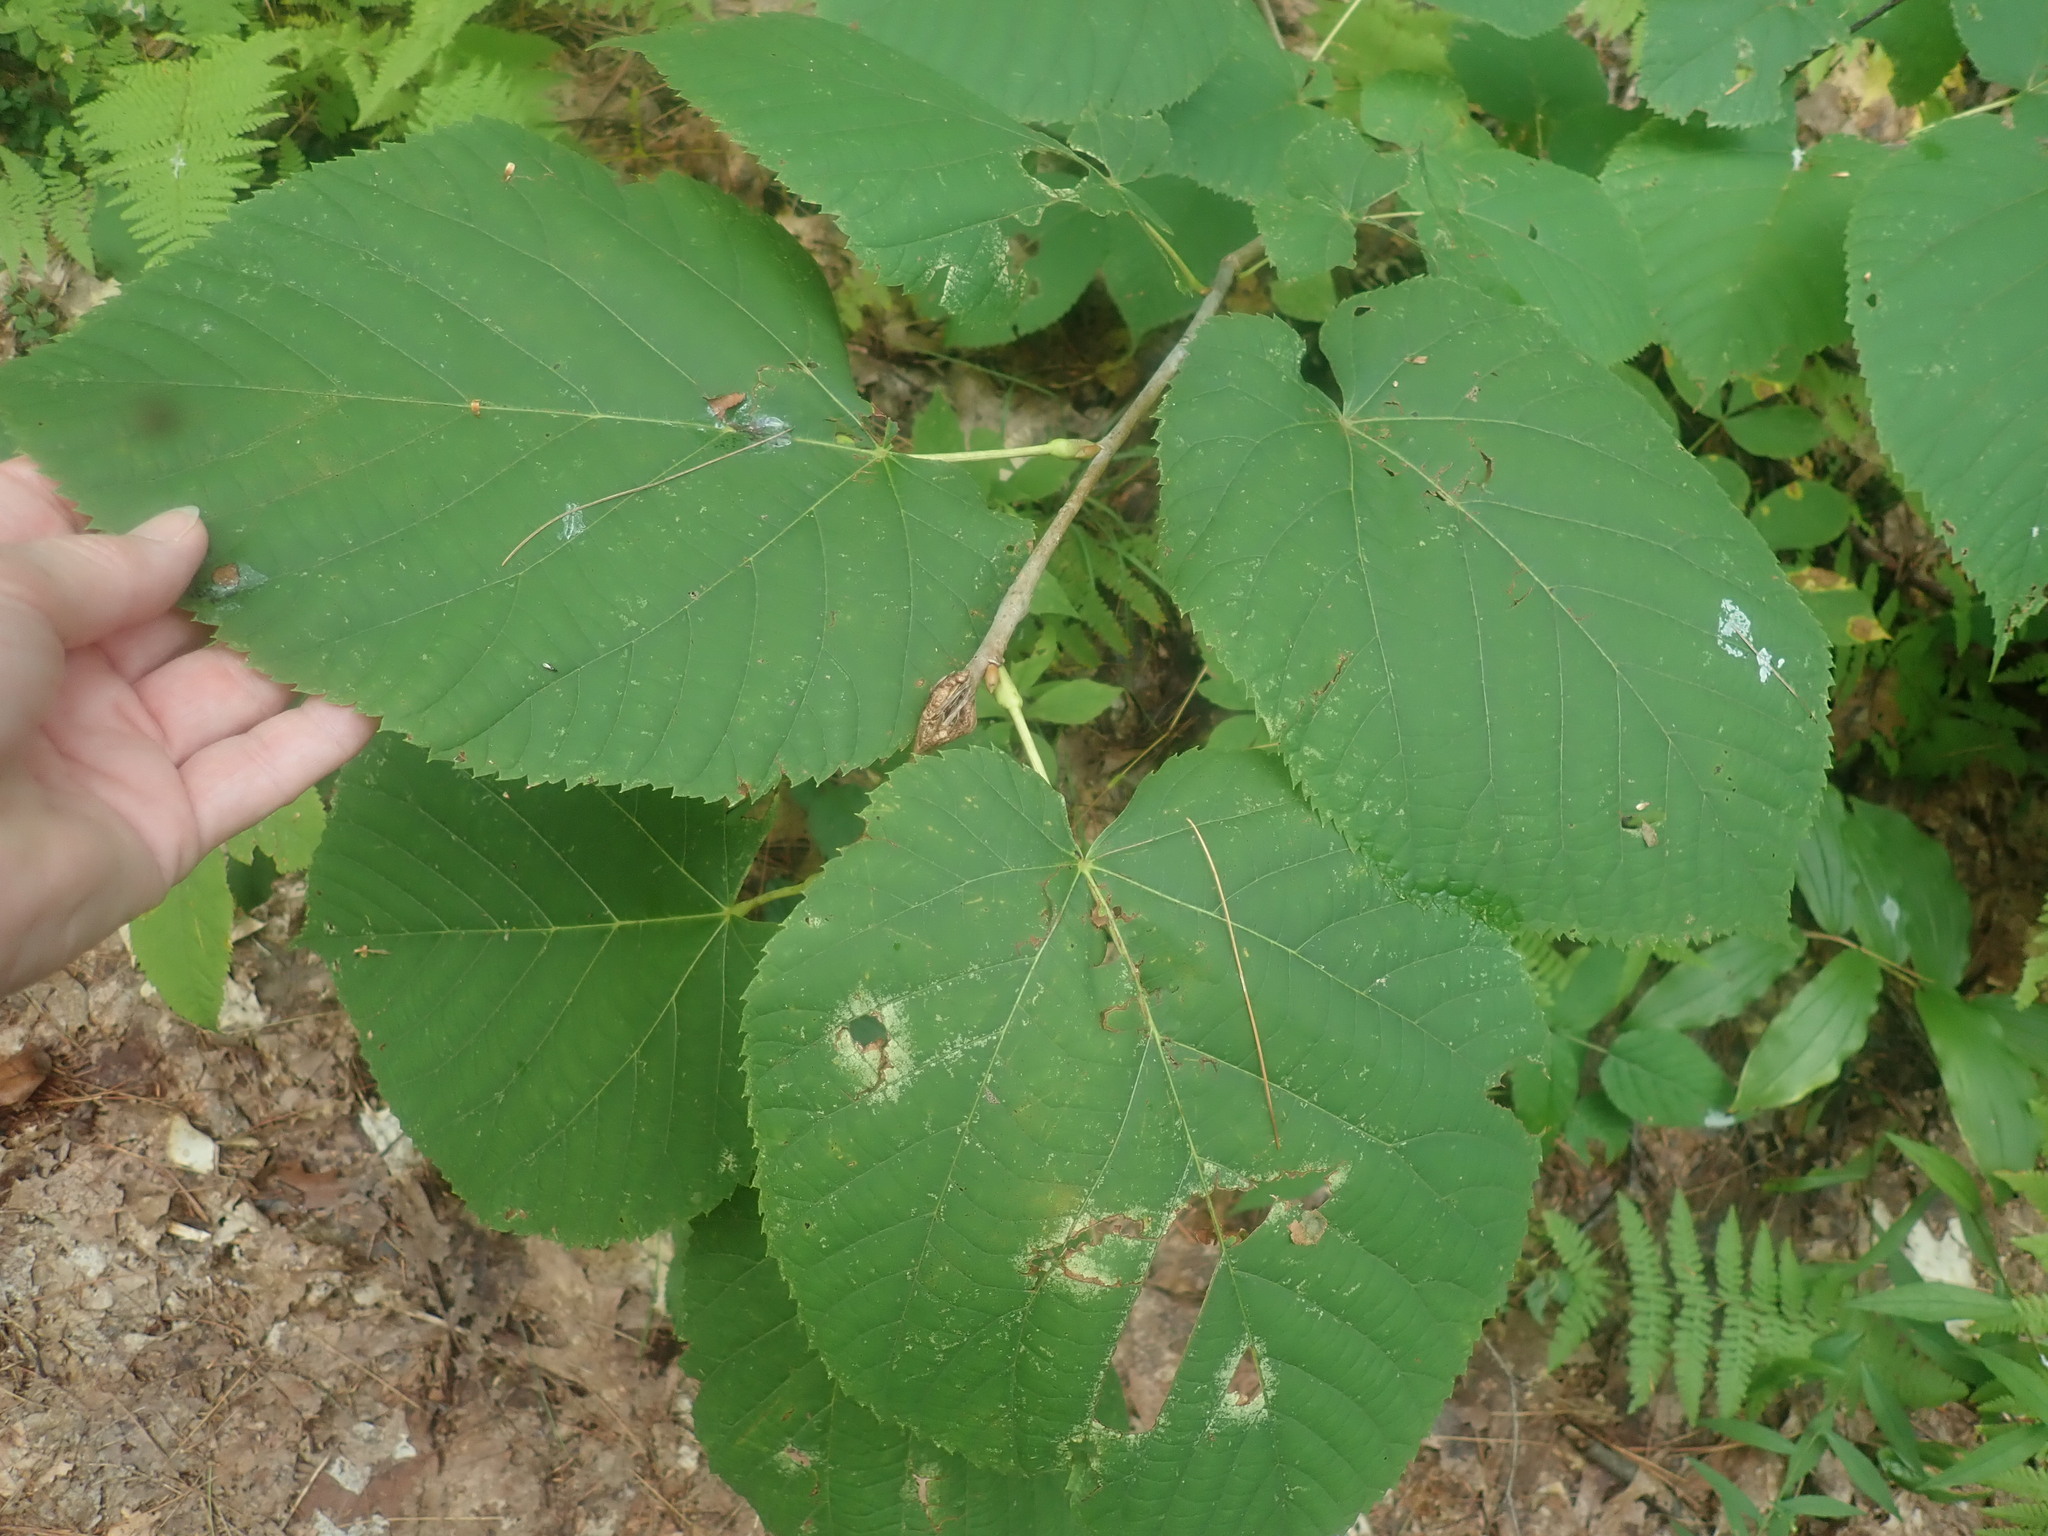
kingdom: Plantae
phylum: Tracheophyta
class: Magnoliopsida
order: Malvales
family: Malvaceae
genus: Tilia
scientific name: Tilia americana
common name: Basswood
